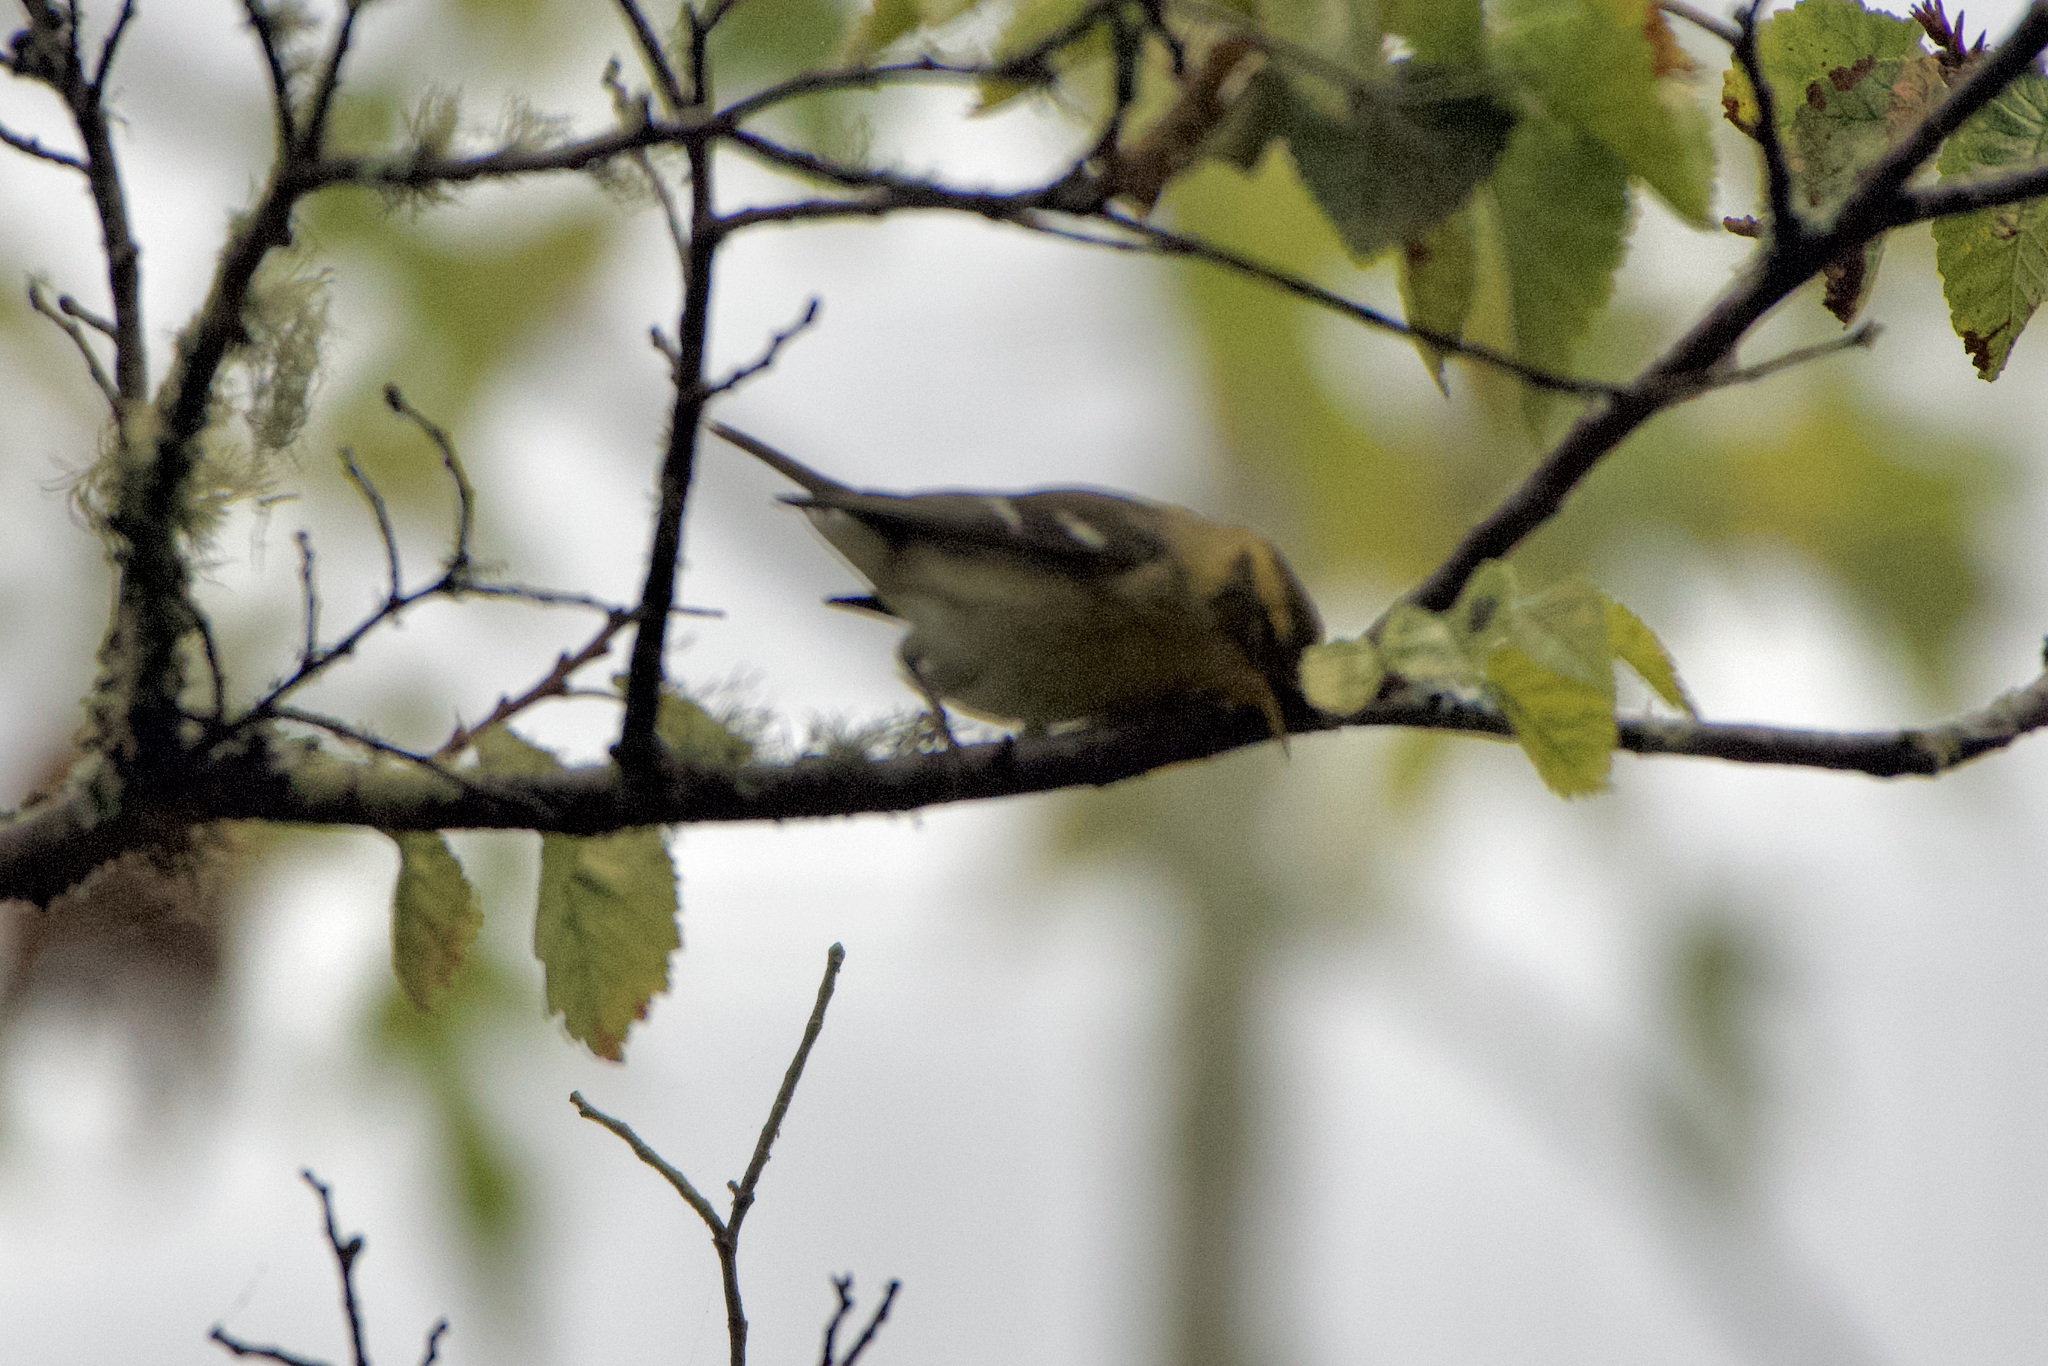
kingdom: Animalia
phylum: Chordata
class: Aves
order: Passeriformes
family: Parulidae
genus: Setophaga
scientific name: Setophaga fusca
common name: Blackburnian warbler
